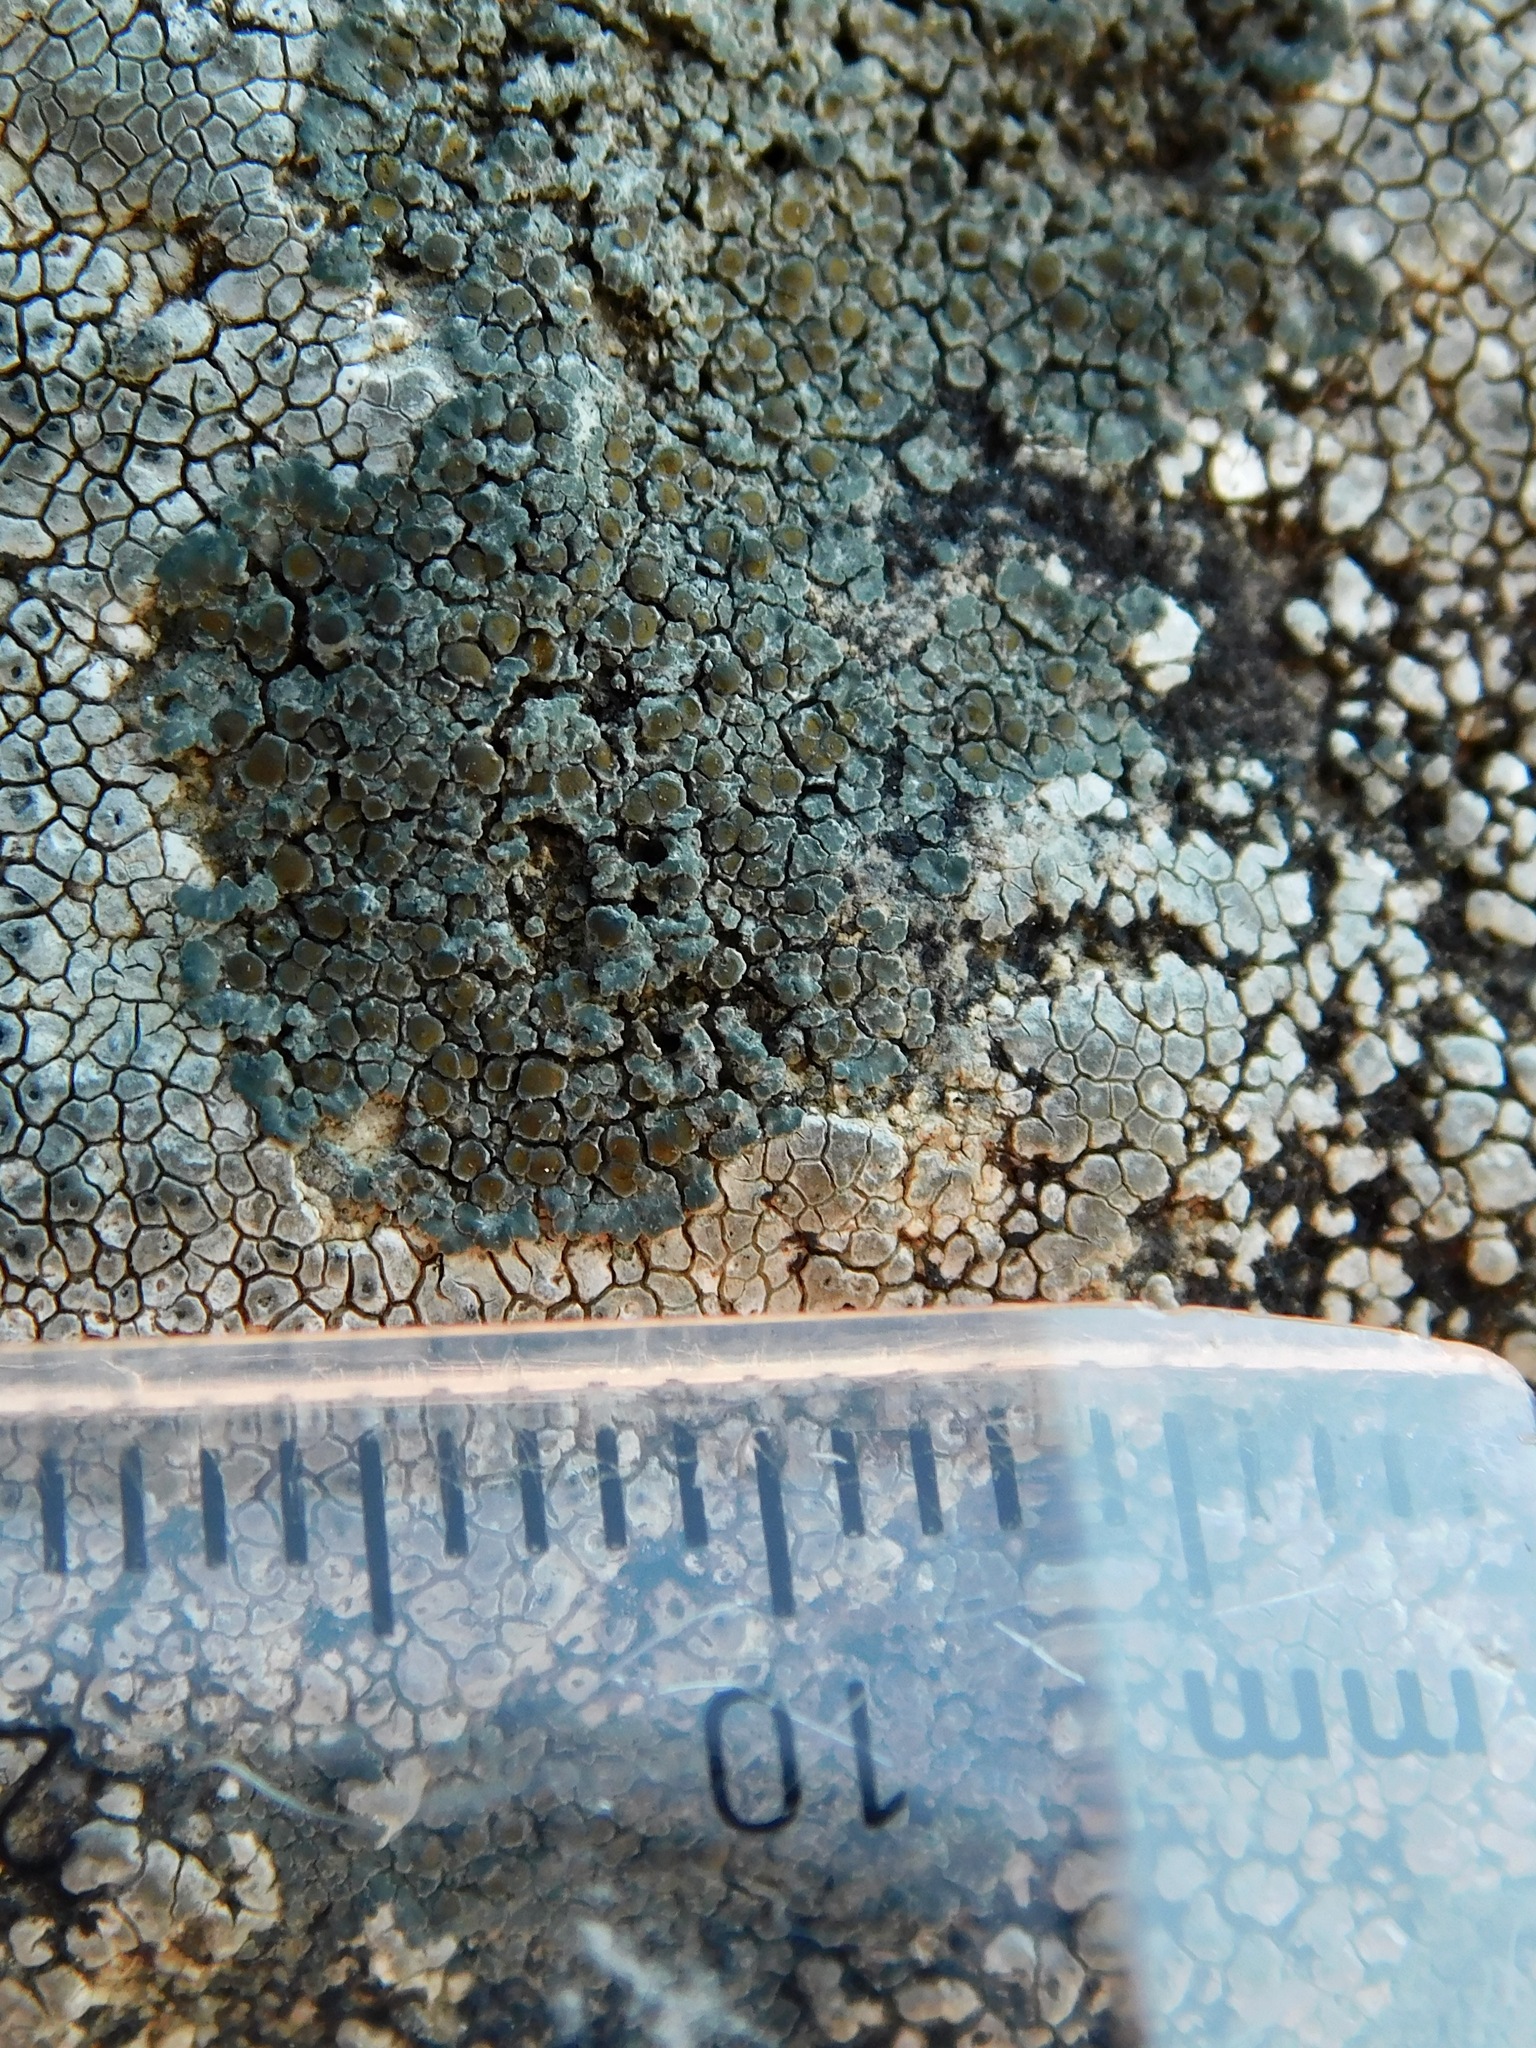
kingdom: Fungi
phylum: Ascomycota
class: Lecanoromycetes
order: Teloschistales
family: Teloschistaceae
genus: Caloplaca
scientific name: Caloplaca sideritis
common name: Iron firedot lichen
